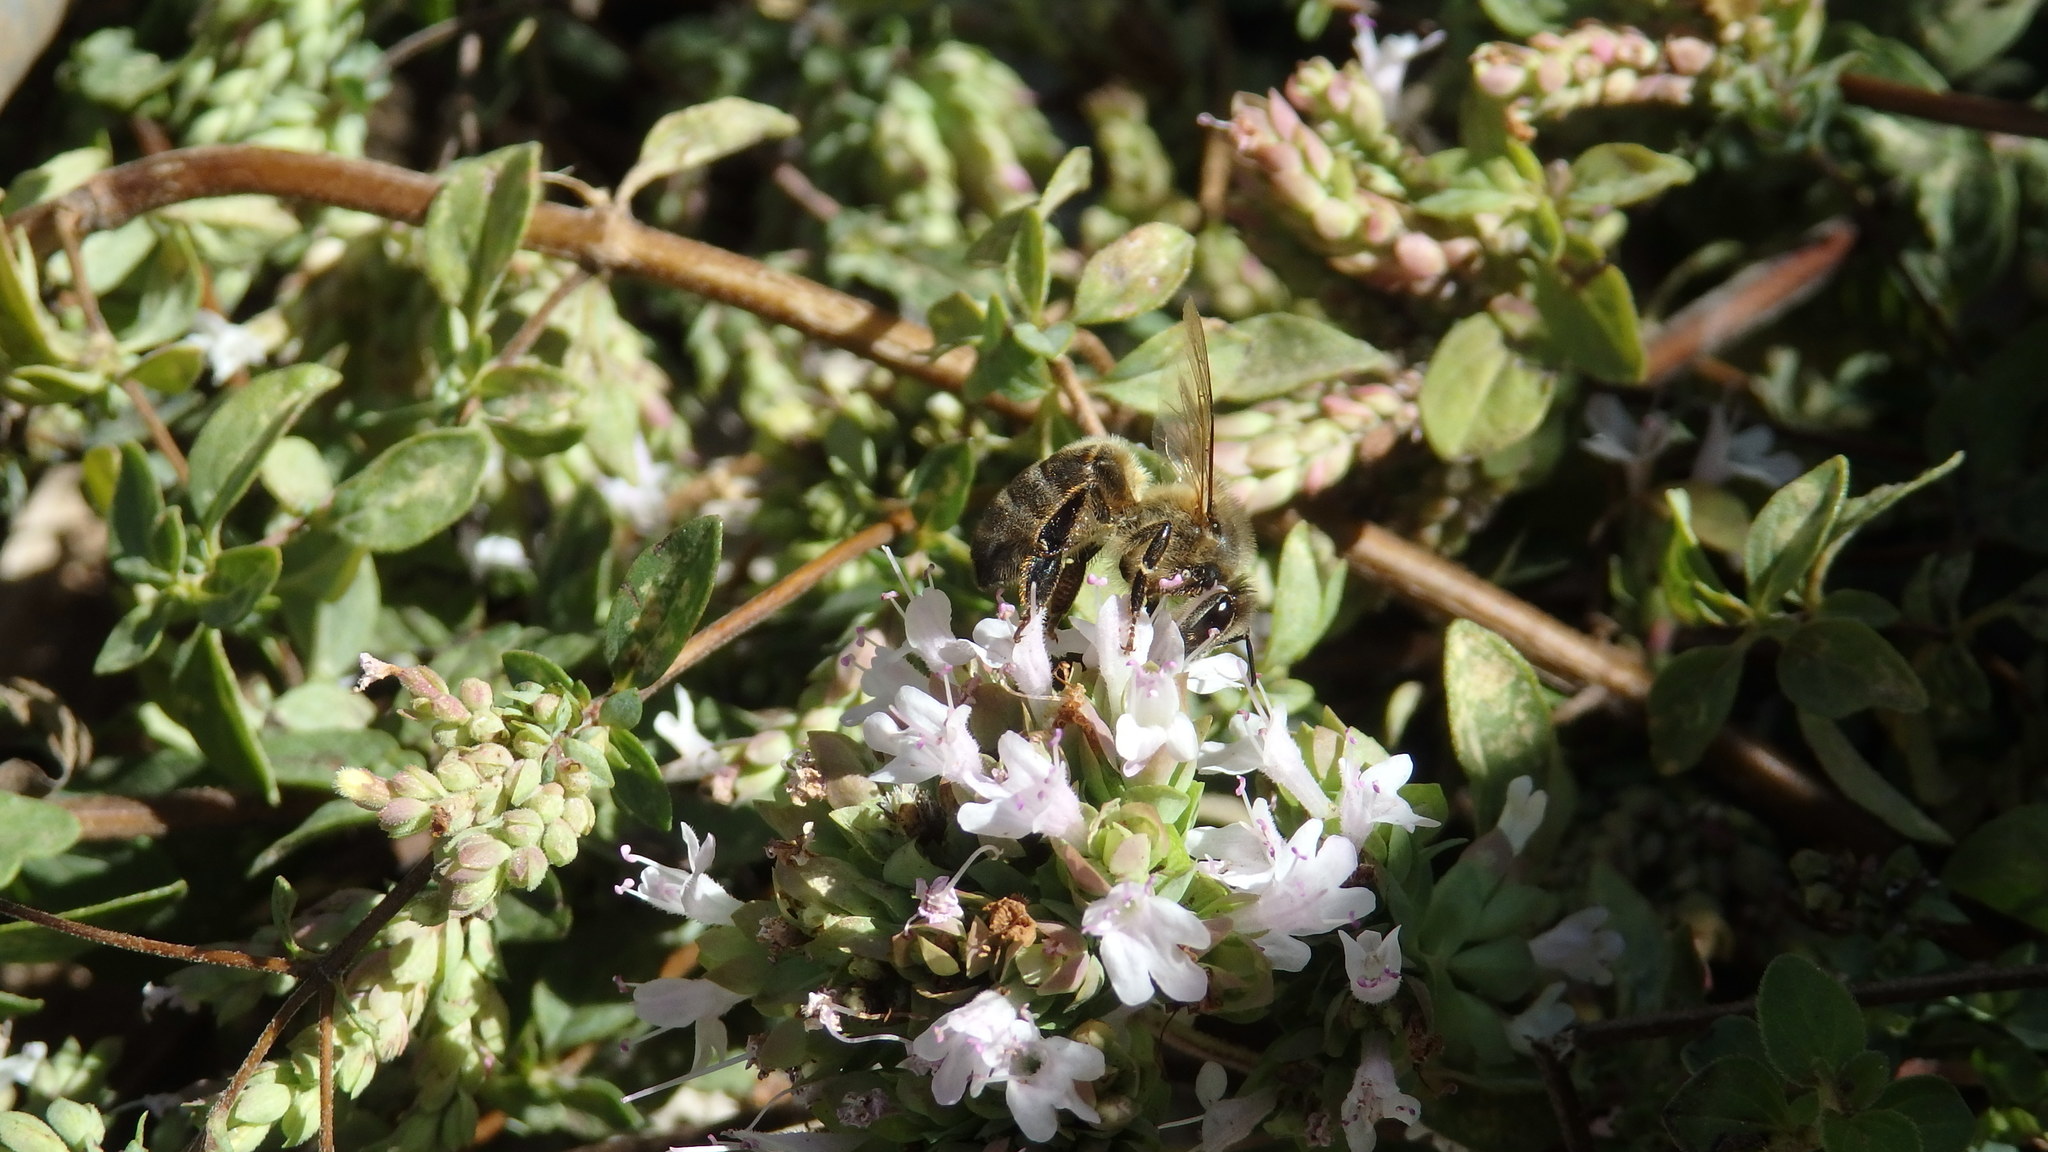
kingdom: Animalia
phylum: Arthropoda
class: Insecta
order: Hymenoptera
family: Apidae
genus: Apis
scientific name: Apis mellifera
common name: Honey bee
